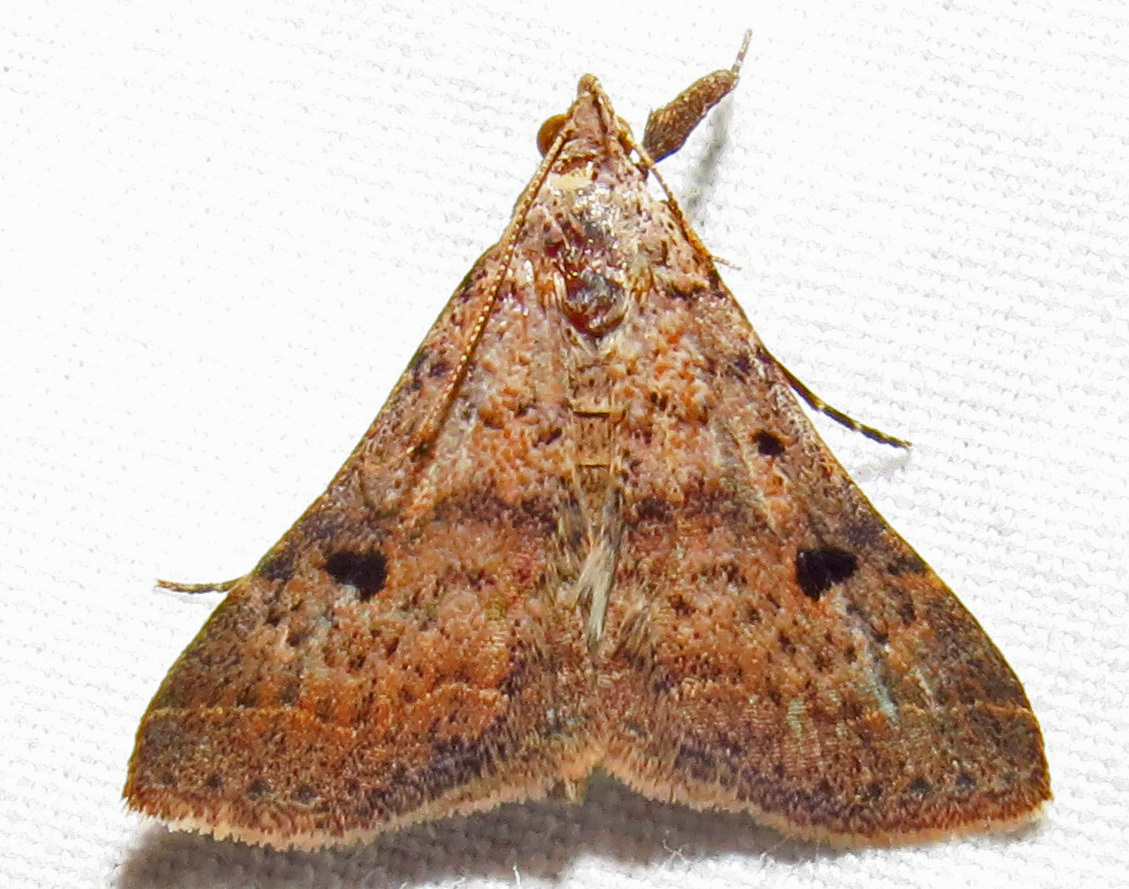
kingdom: Animalia
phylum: Arthropoda
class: Insecta
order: Lepidoptera
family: Erebidae
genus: Bleptina
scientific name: Bleptina caradrinalis
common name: Bent-winged owlet
